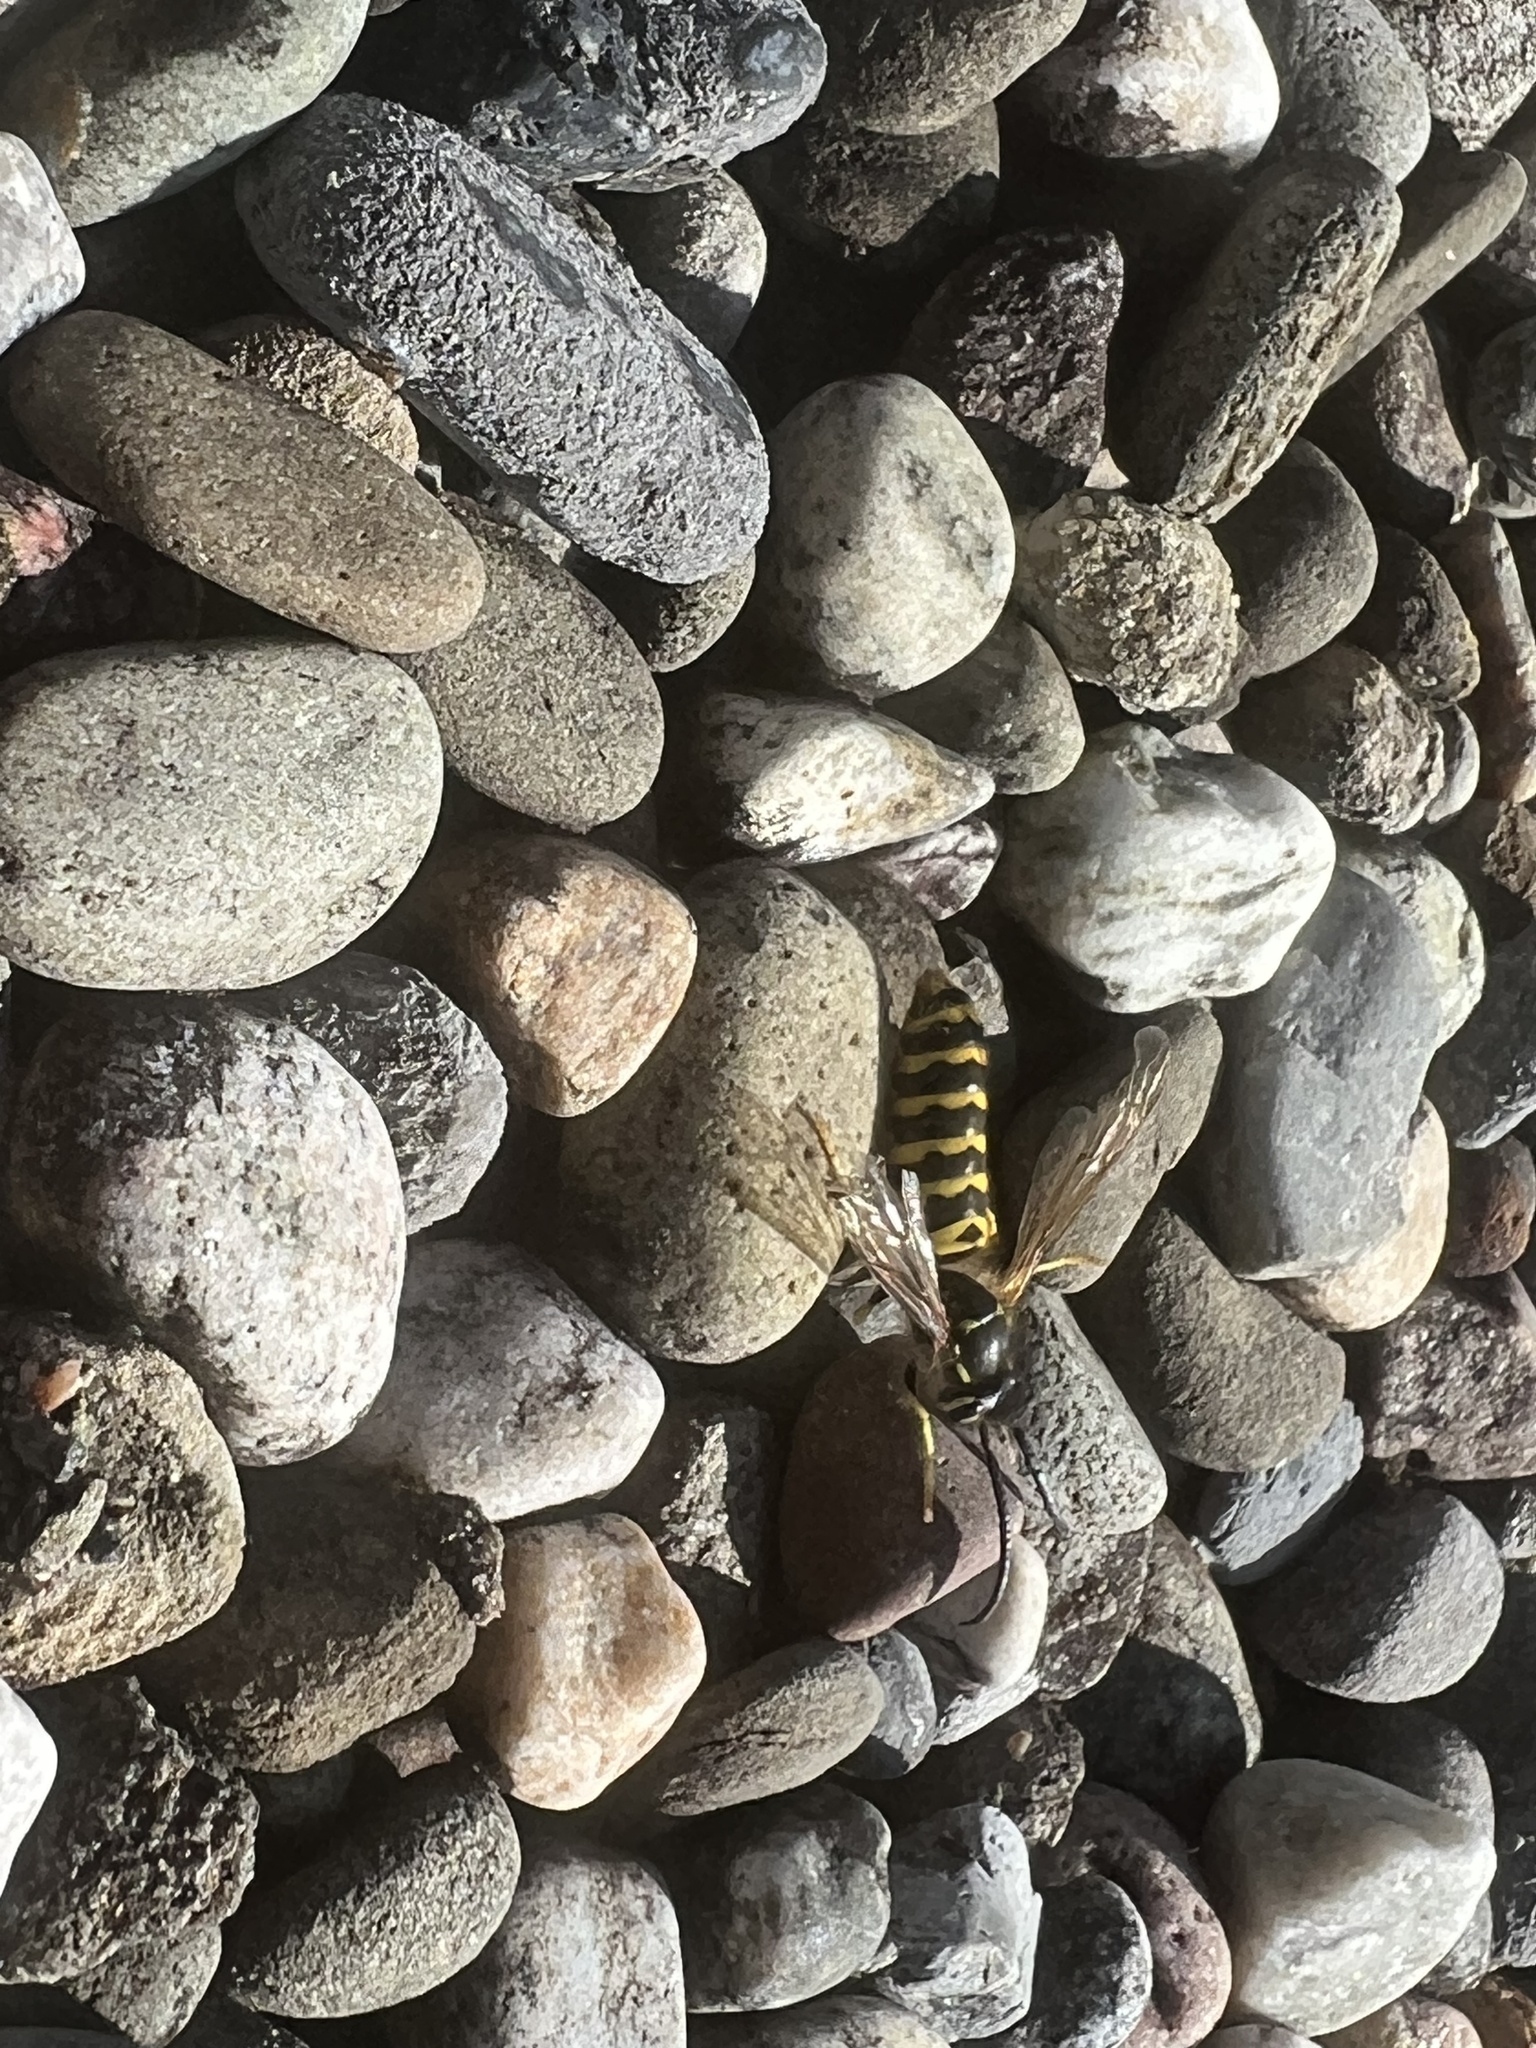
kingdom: Animalia
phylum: Arthropoda
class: Insecta
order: Hymenoptera
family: Vespidae
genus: Vespula
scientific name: Vespula maculifrons
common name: Eastern yellowjacket
